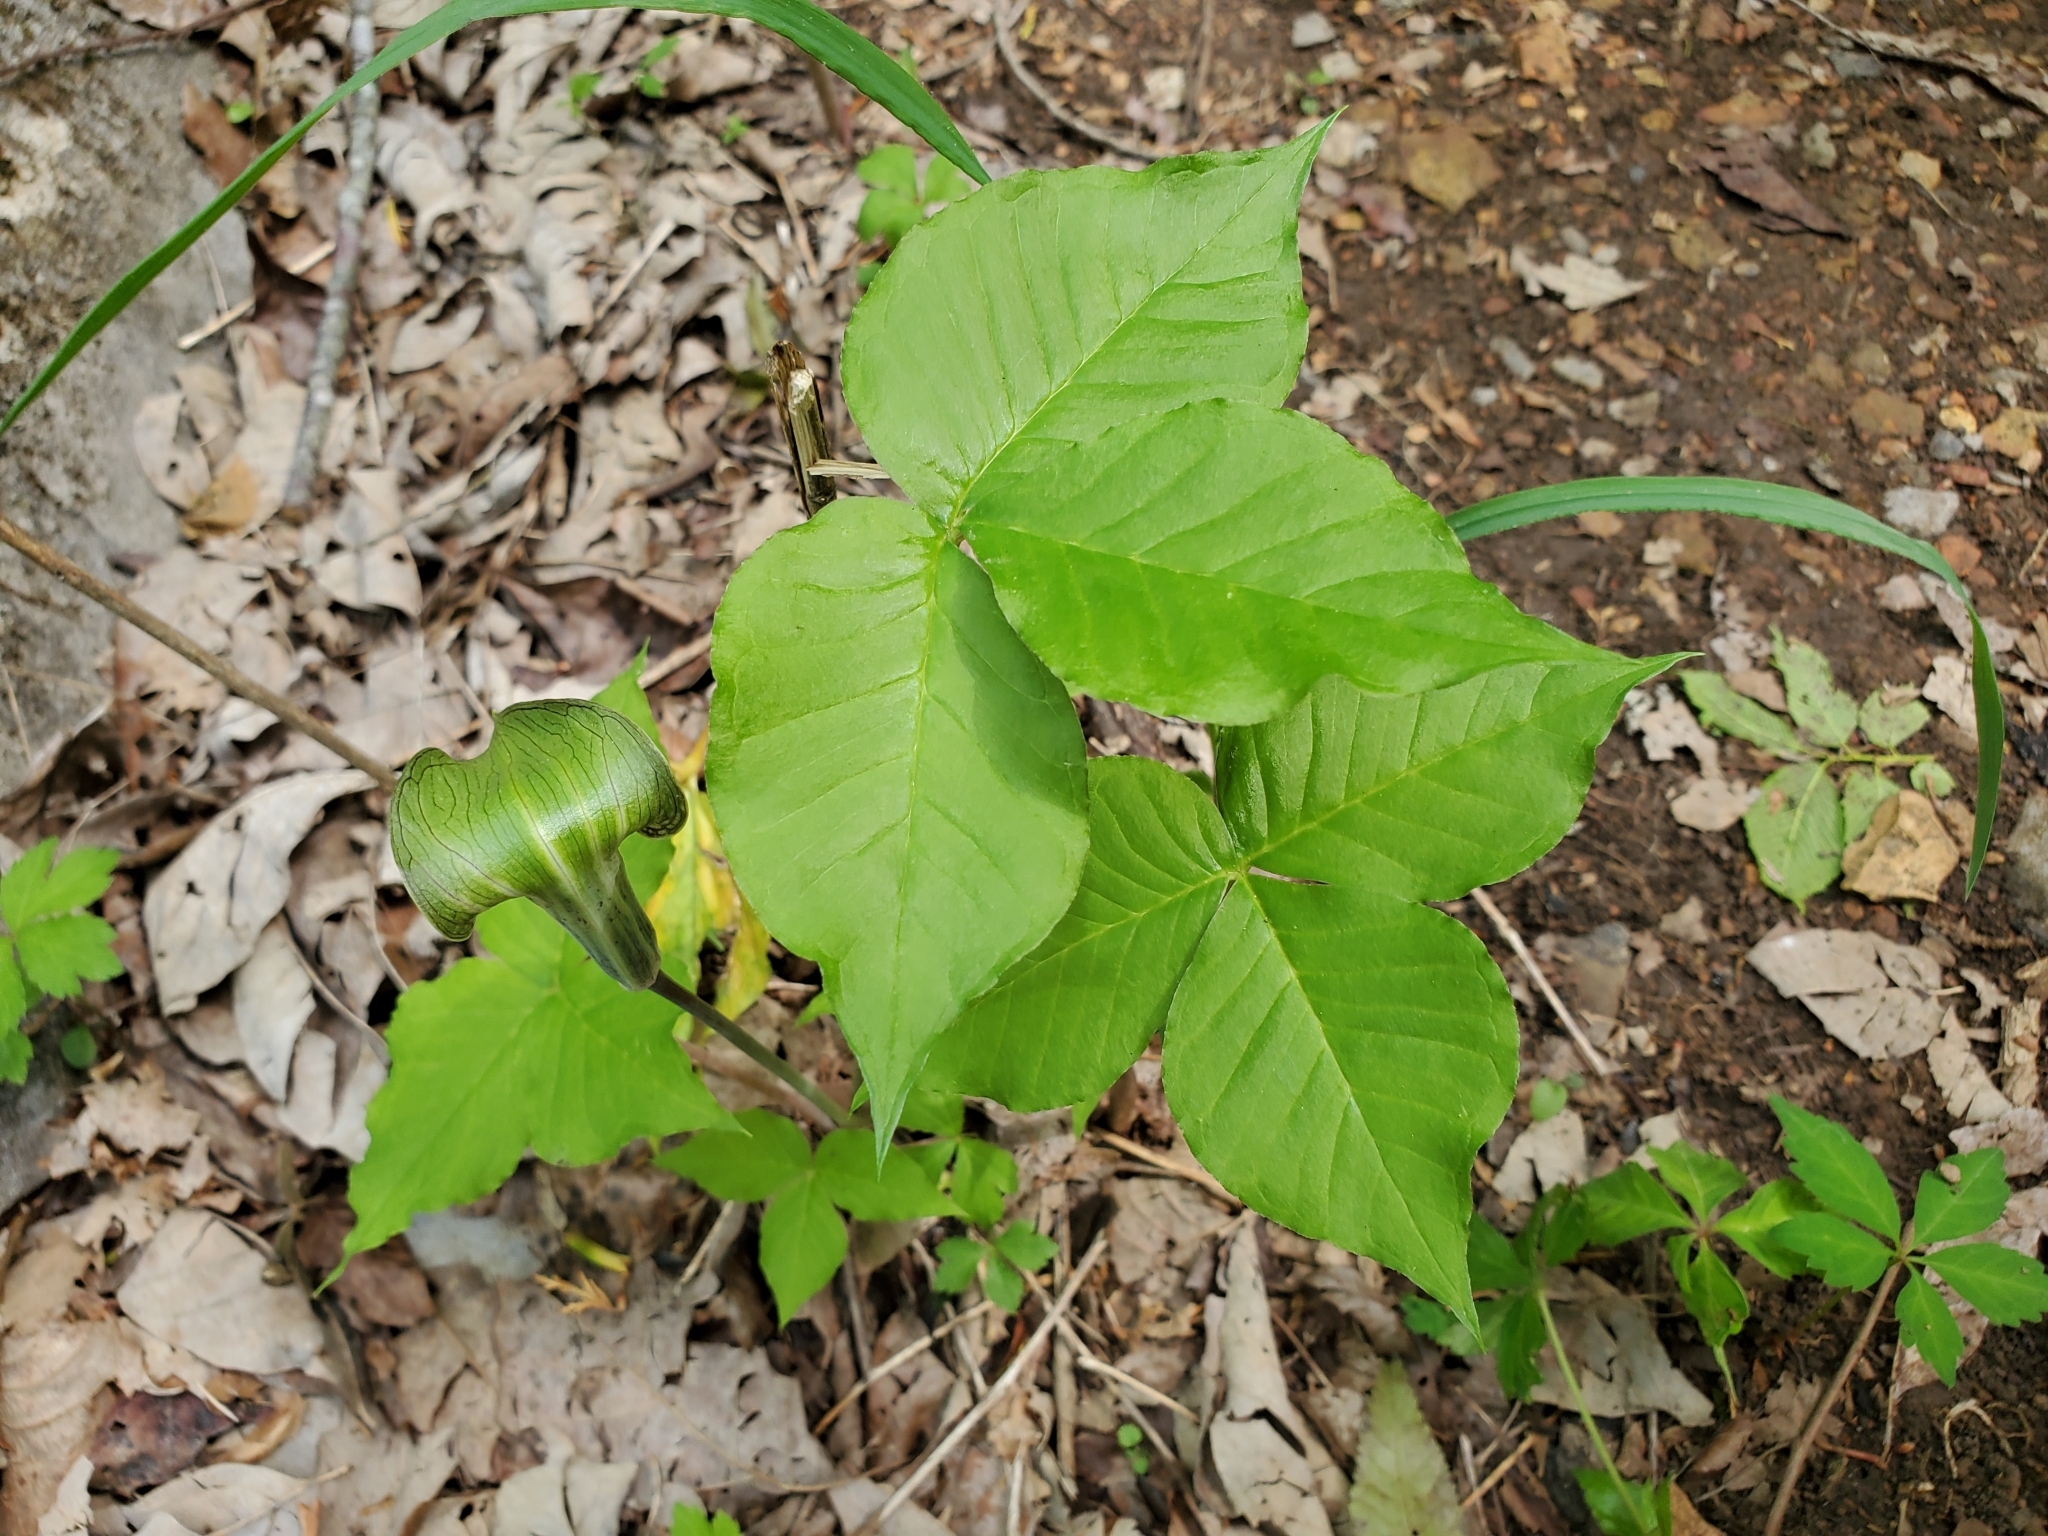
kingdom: Plantae
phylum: Tracheophyta
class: Liliopsida
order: Alismatales
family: Araceae
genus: Arisaema
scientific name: Arisaema triphyllum
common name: Jack-in-the-pulpit
